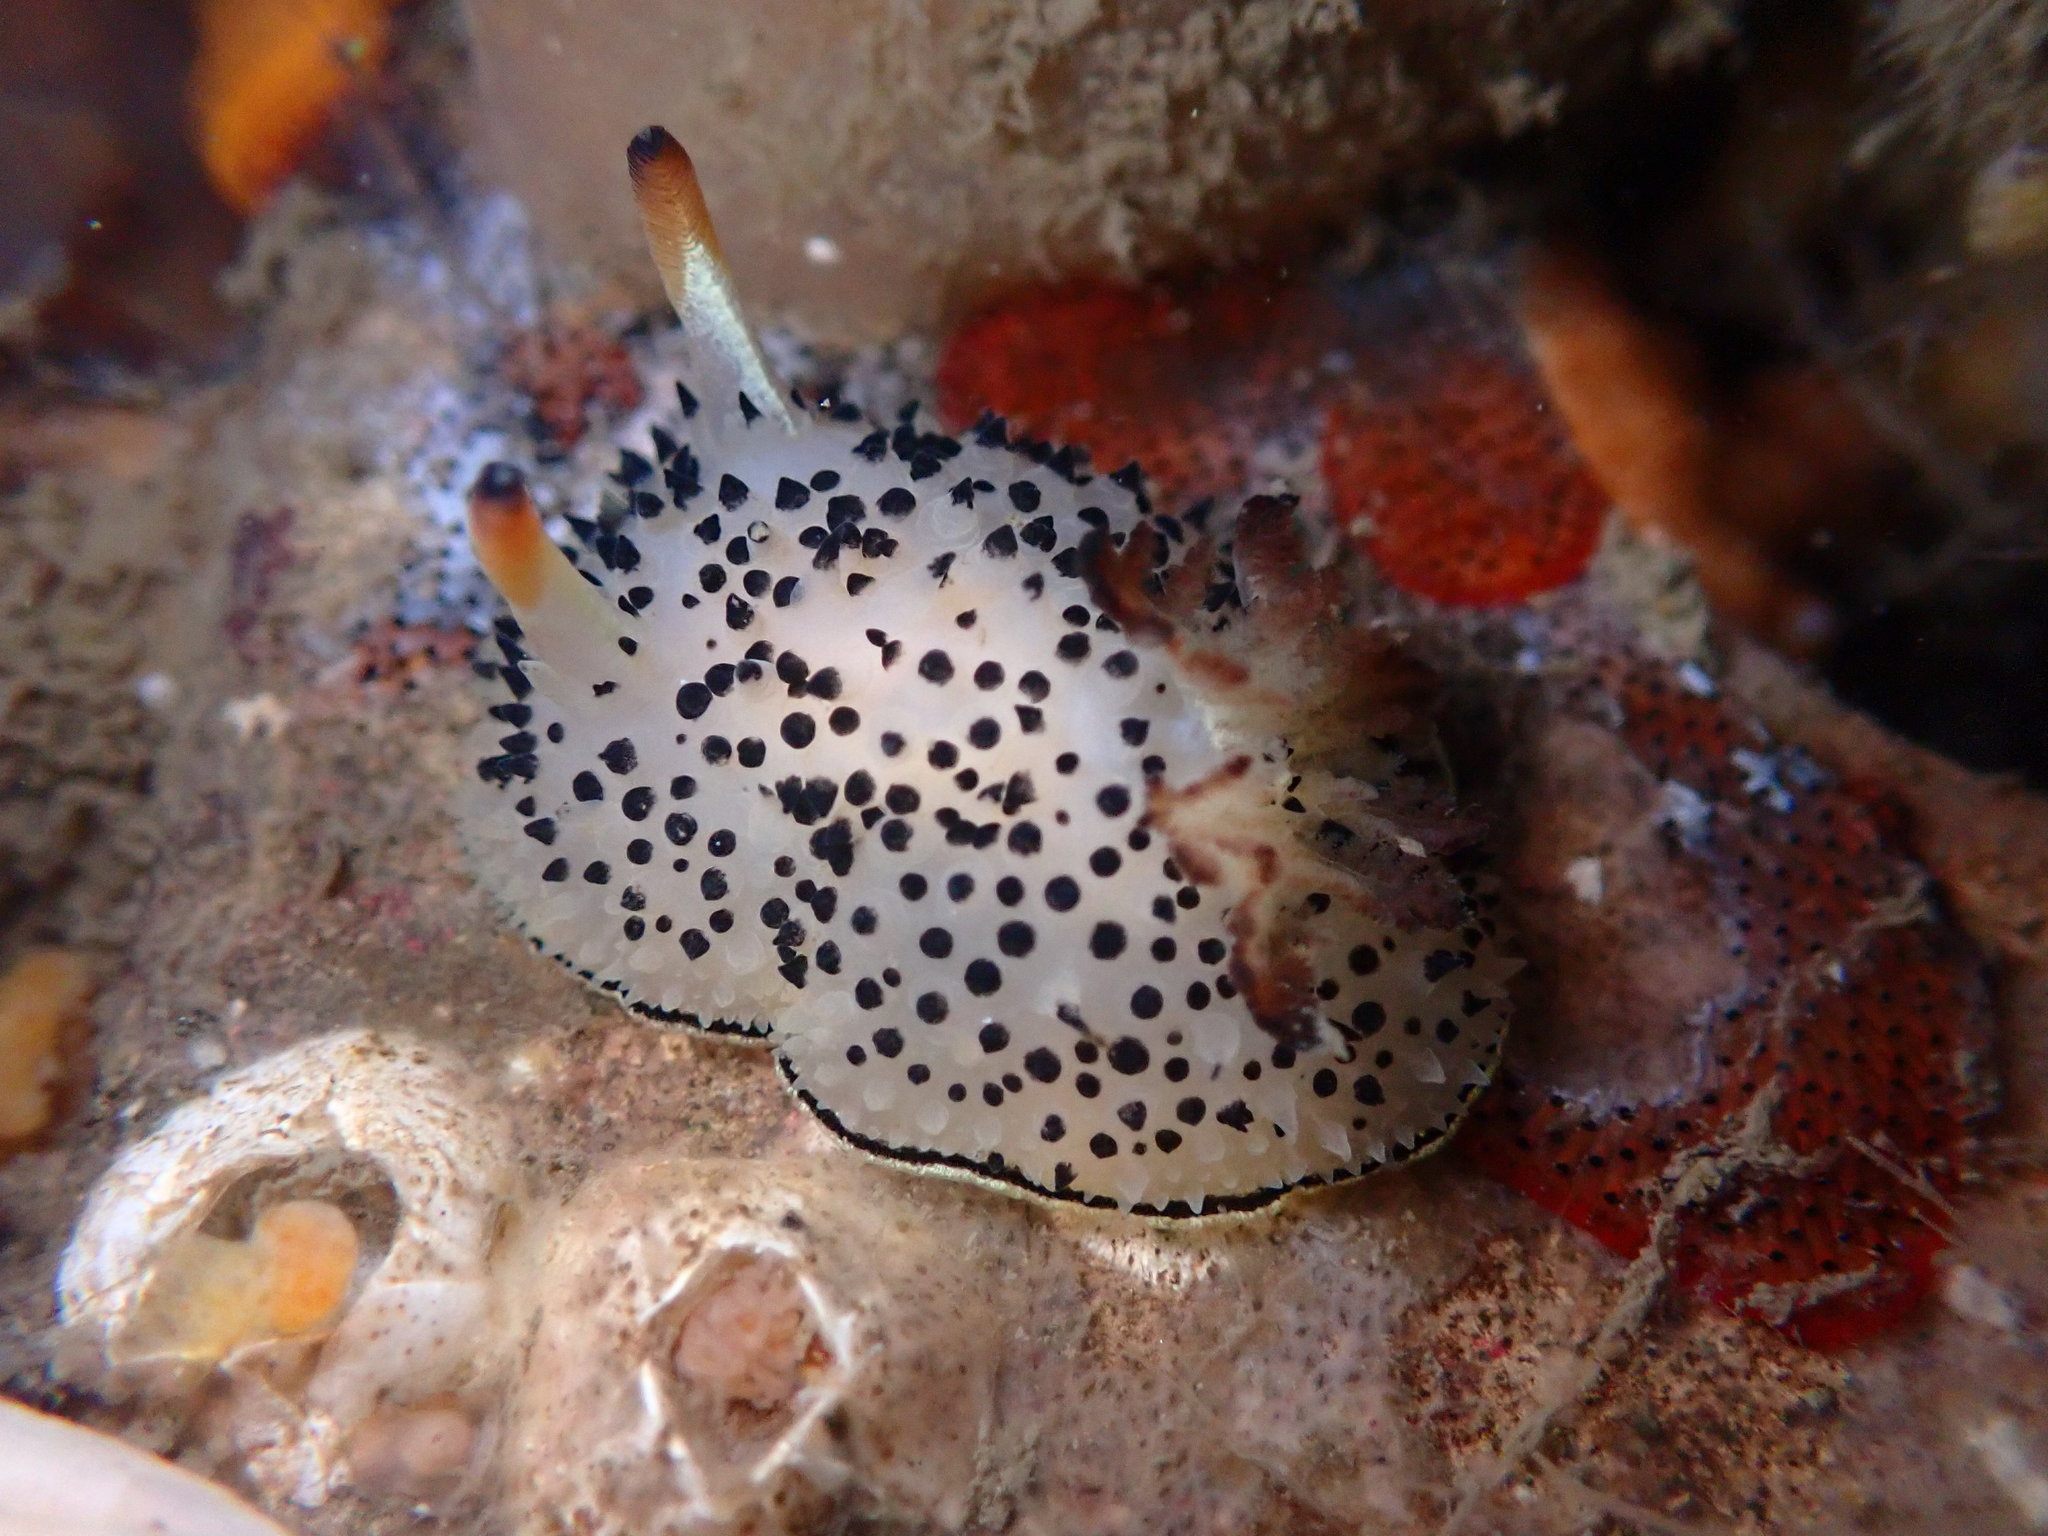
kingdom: Animalia
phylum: Mollusca
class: Gastropoda
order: Nudibranchia
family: Onchidorididae
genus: Acanthodoris
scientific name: Acanthodoris rhodoceras
